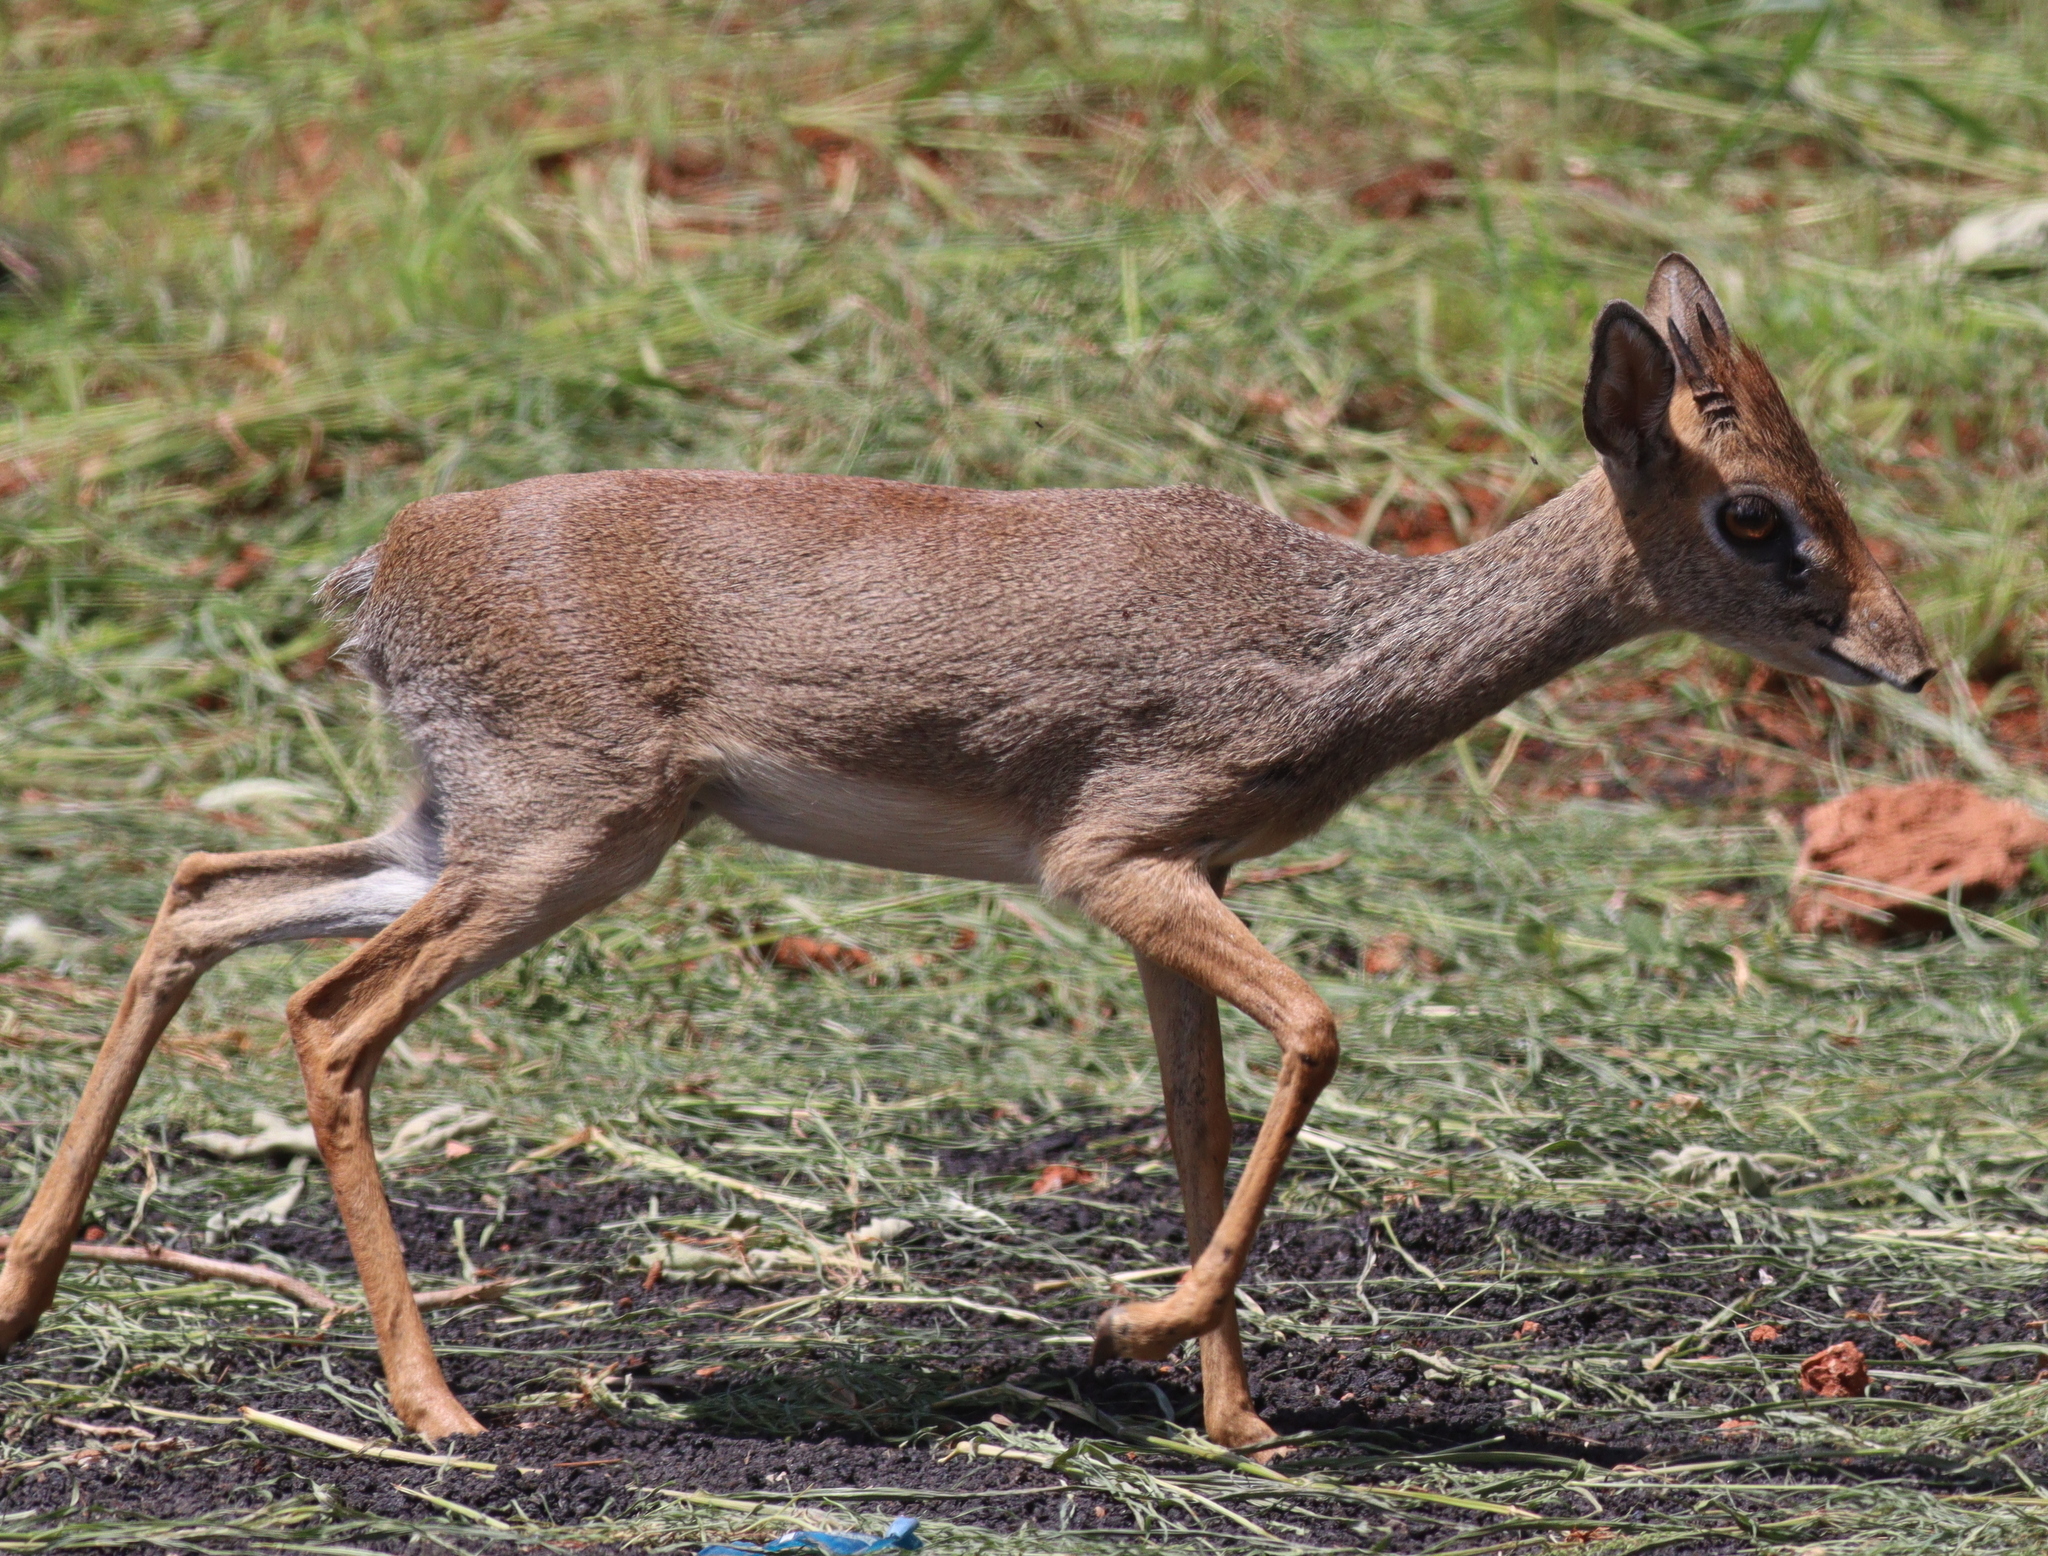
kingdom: Animalia
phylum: Chordata
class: Mammalia
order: Artiodactyla
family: Bovidae
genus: Madoqua
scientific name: Madoqua
